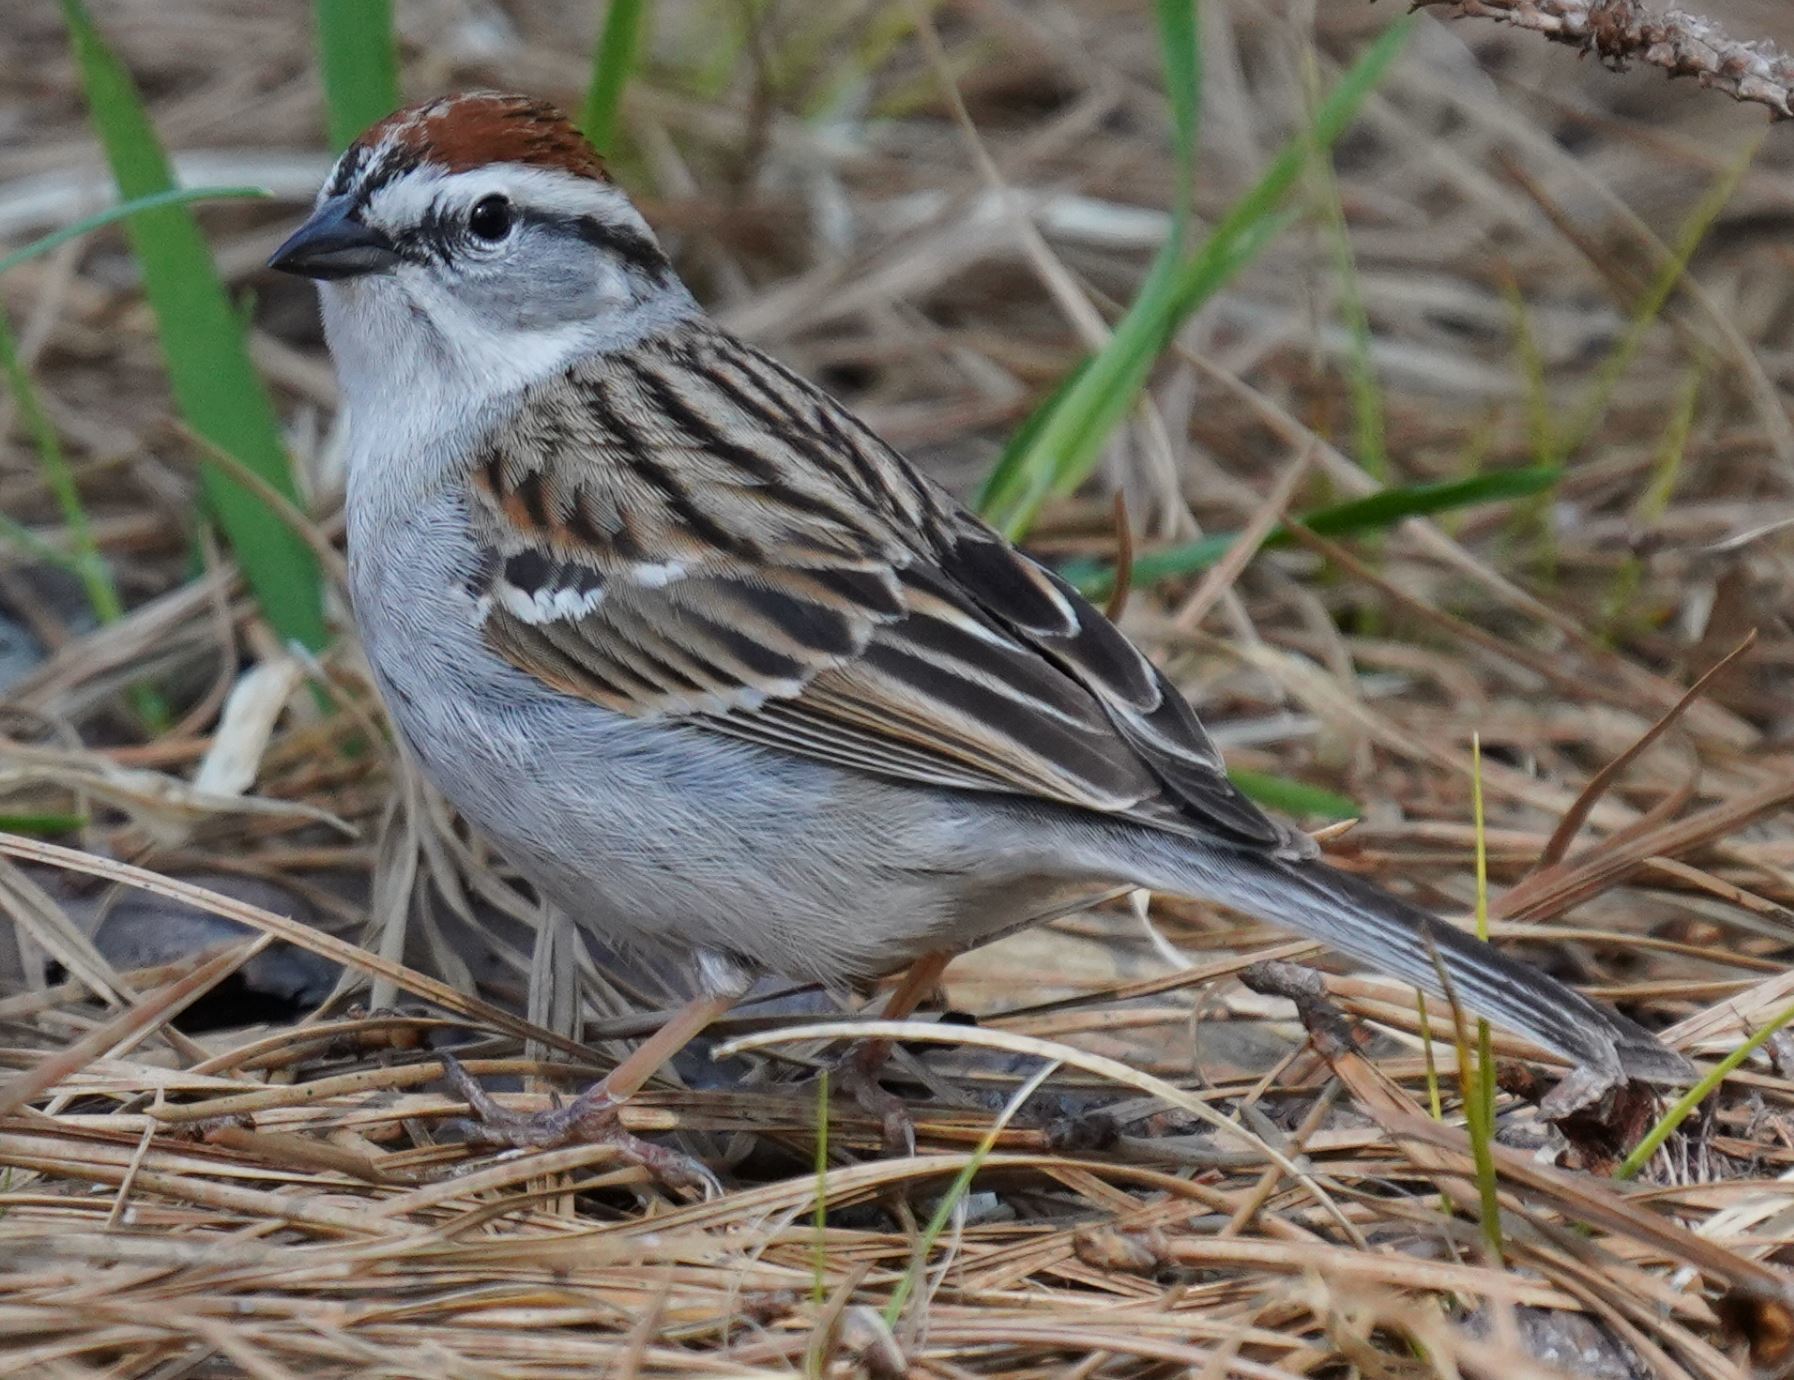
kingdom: Animalia
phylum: Chordata
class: Aves
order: Passeriformes
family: Passerellidae
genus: Spizella
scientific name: Spizella passerina
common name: Chipping sparrow
